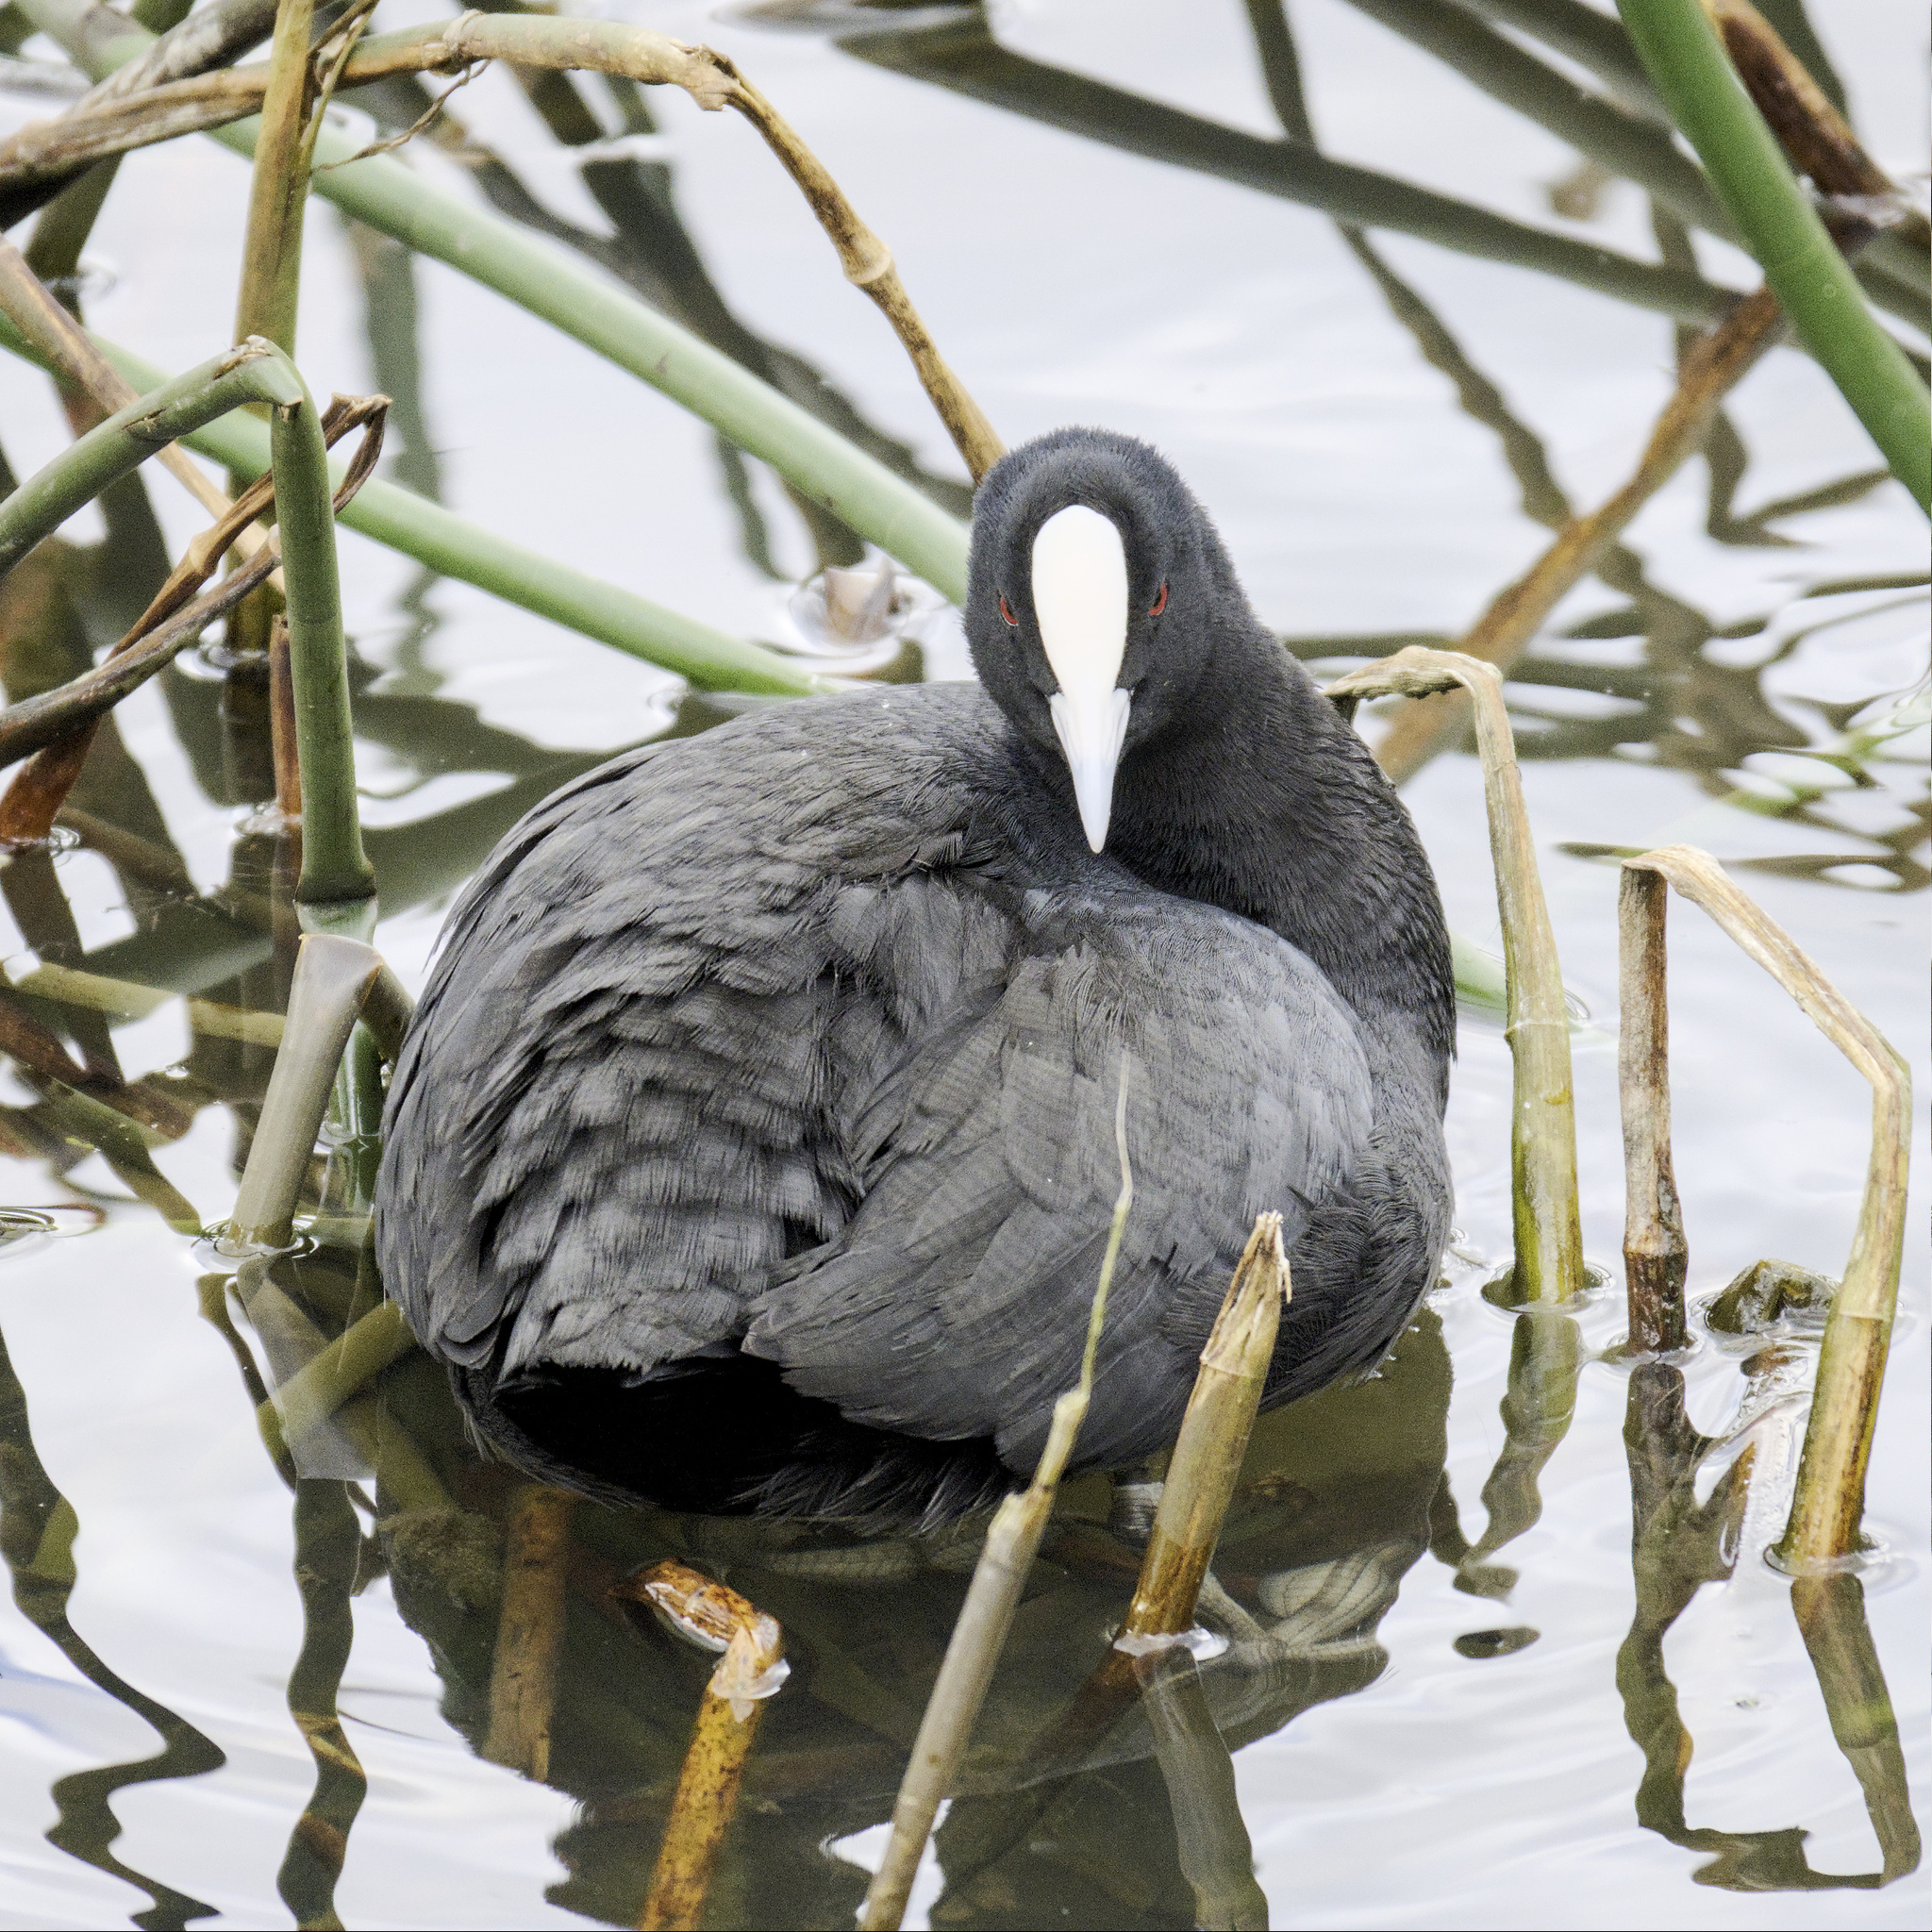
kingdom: Animalia
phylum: Chordata
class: Aves
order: Gruiformes
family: Rallidae
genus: Fulica
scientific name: Fulica atra
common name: Eurasian coot
